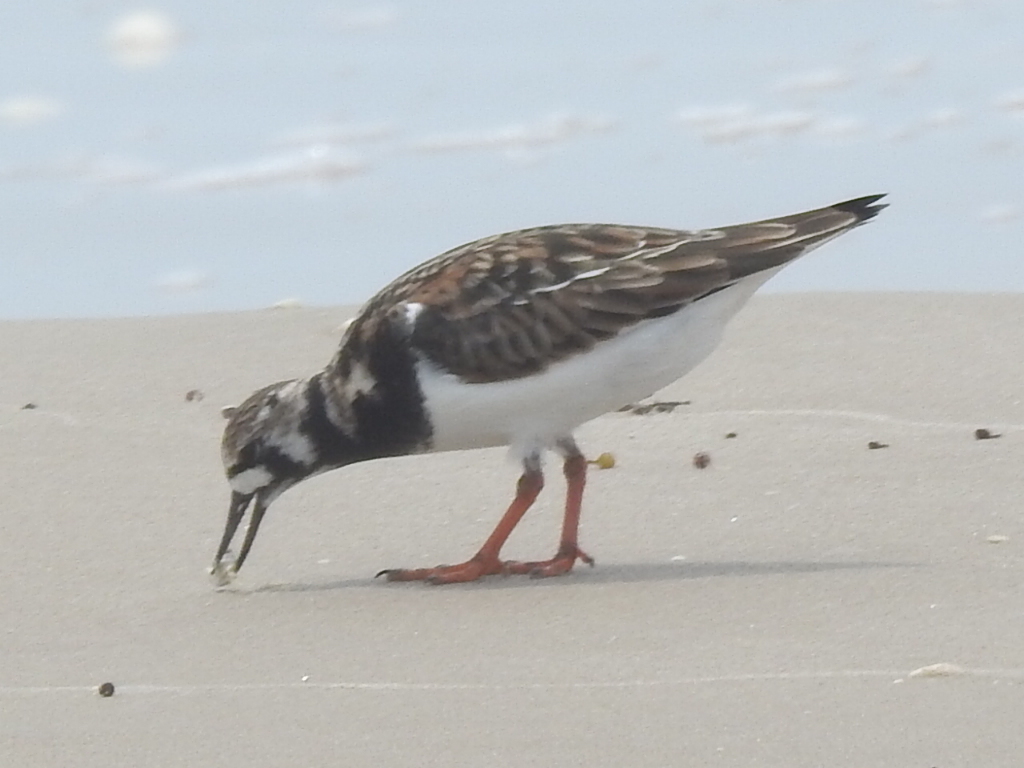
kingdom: Animalia
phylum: Chordata
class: Aves
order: Charadriiformes
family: Scolopacidae
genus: Arenaria
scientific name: Arenaria interpres
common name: Ruddy turnstone
